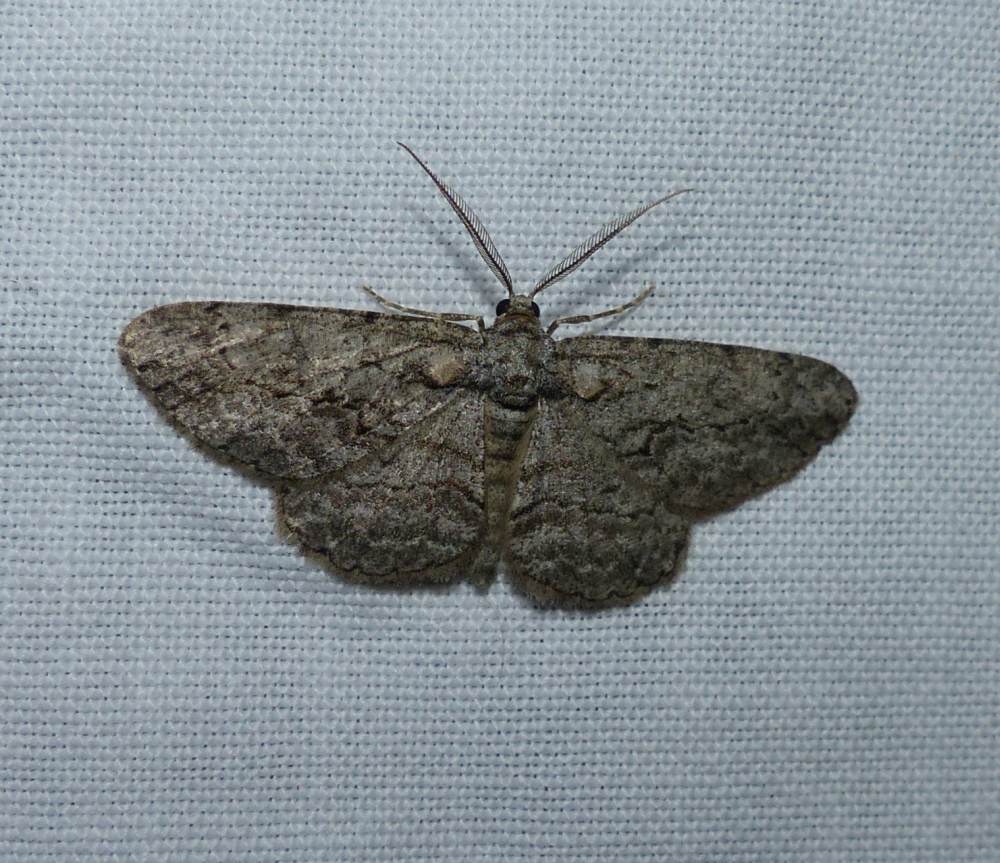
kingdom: Animalia
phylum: Arthropoda
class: Insecta
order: Lepidoptera
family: Geometridae
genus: Anavitrinella
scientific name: Anavitrinella pampinaria
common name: Common gray
